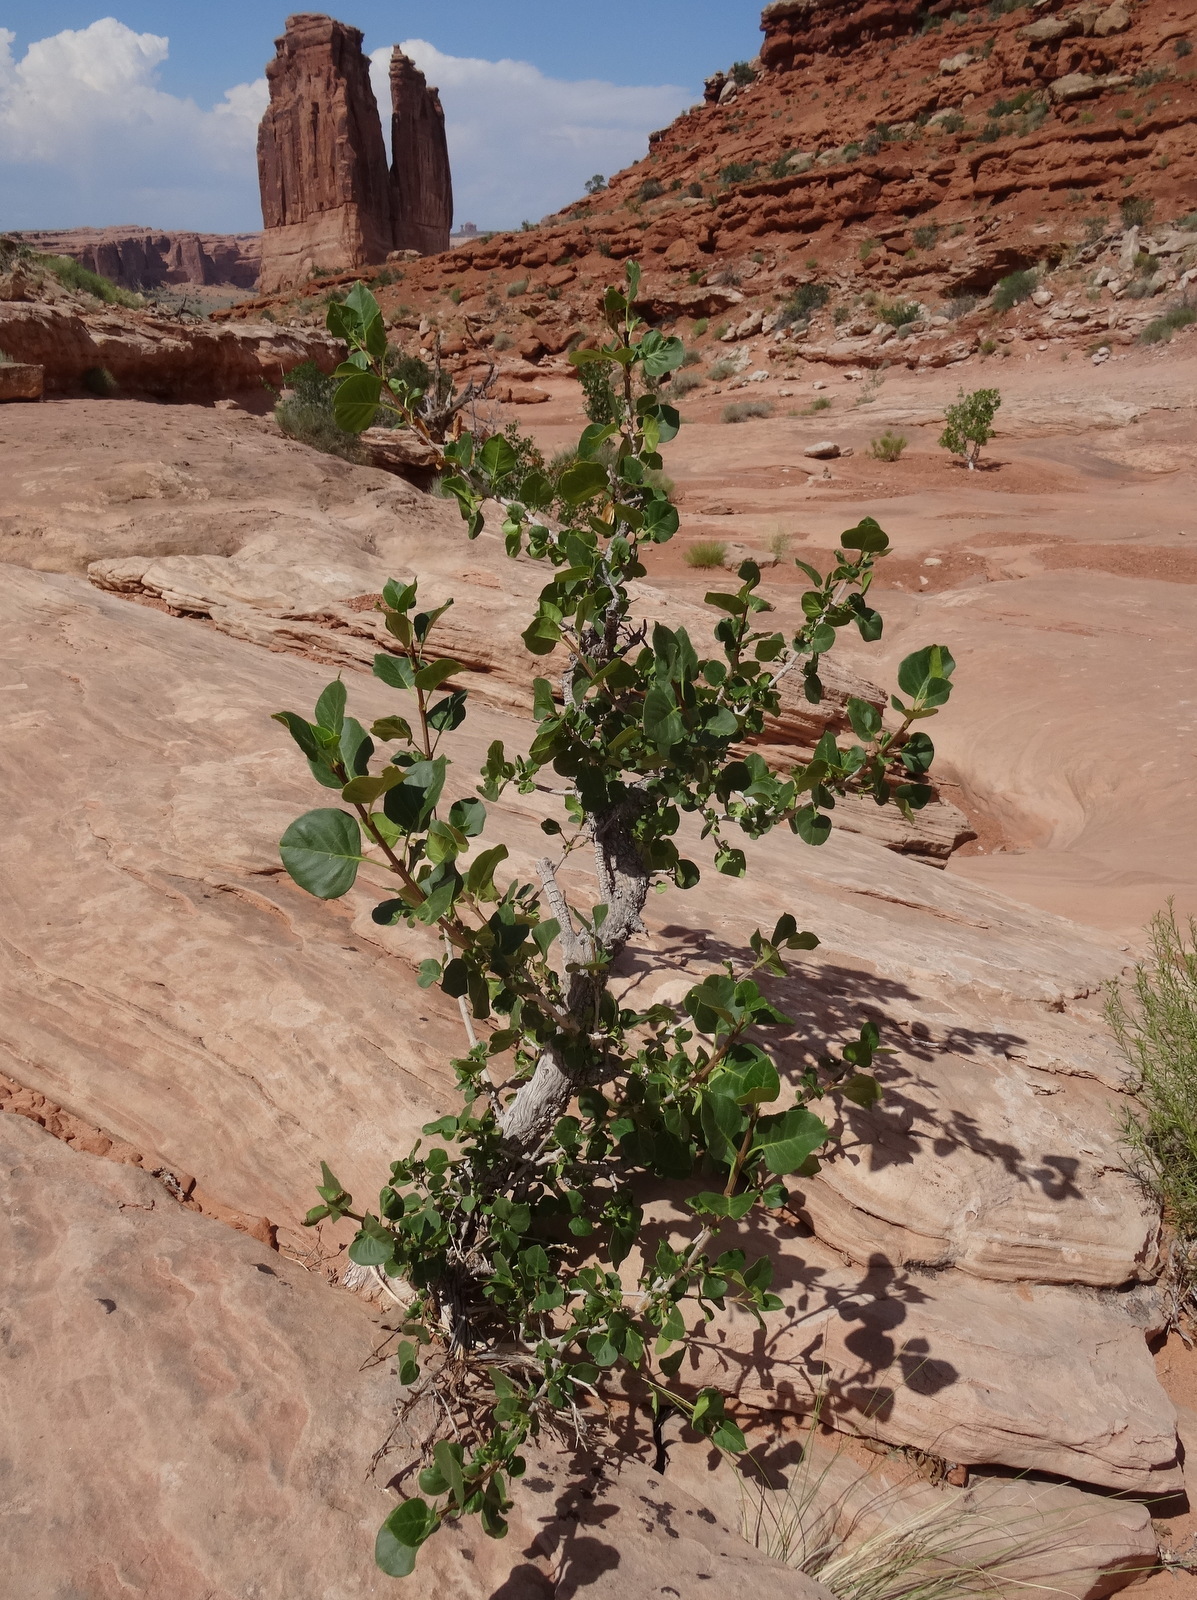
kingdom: Plantae
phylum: Tracheophyta
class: Magnoliopsida
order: Lamiales
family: Oleaceae
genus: Fraxinus
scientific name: Fraxinus anomala
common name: Utah ash
